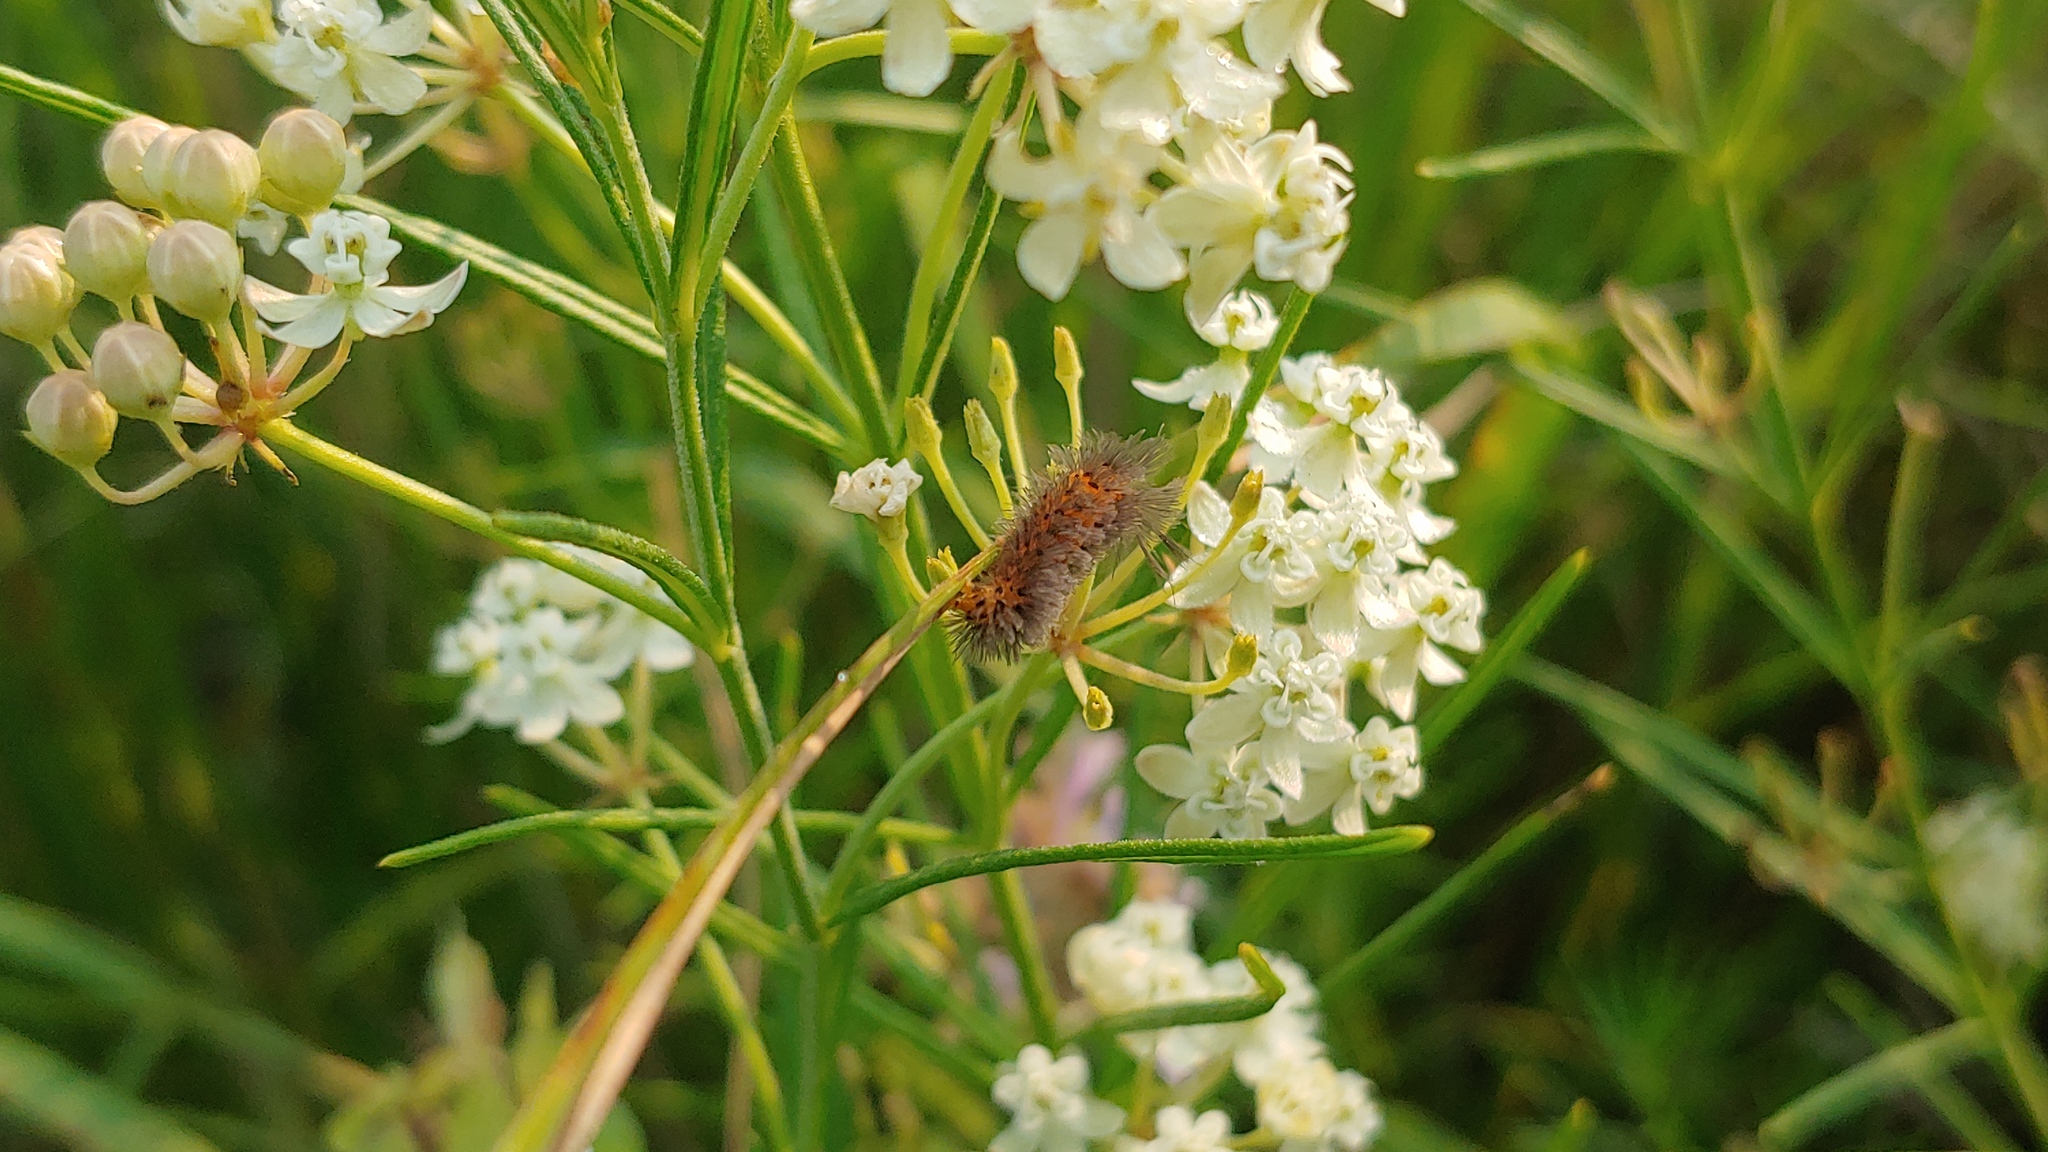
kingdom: Animalia
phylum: Arthropoda
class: Insecta
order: Lepidoptera
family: Erebidae
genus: Cycnia
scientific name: Cycnia collaris
